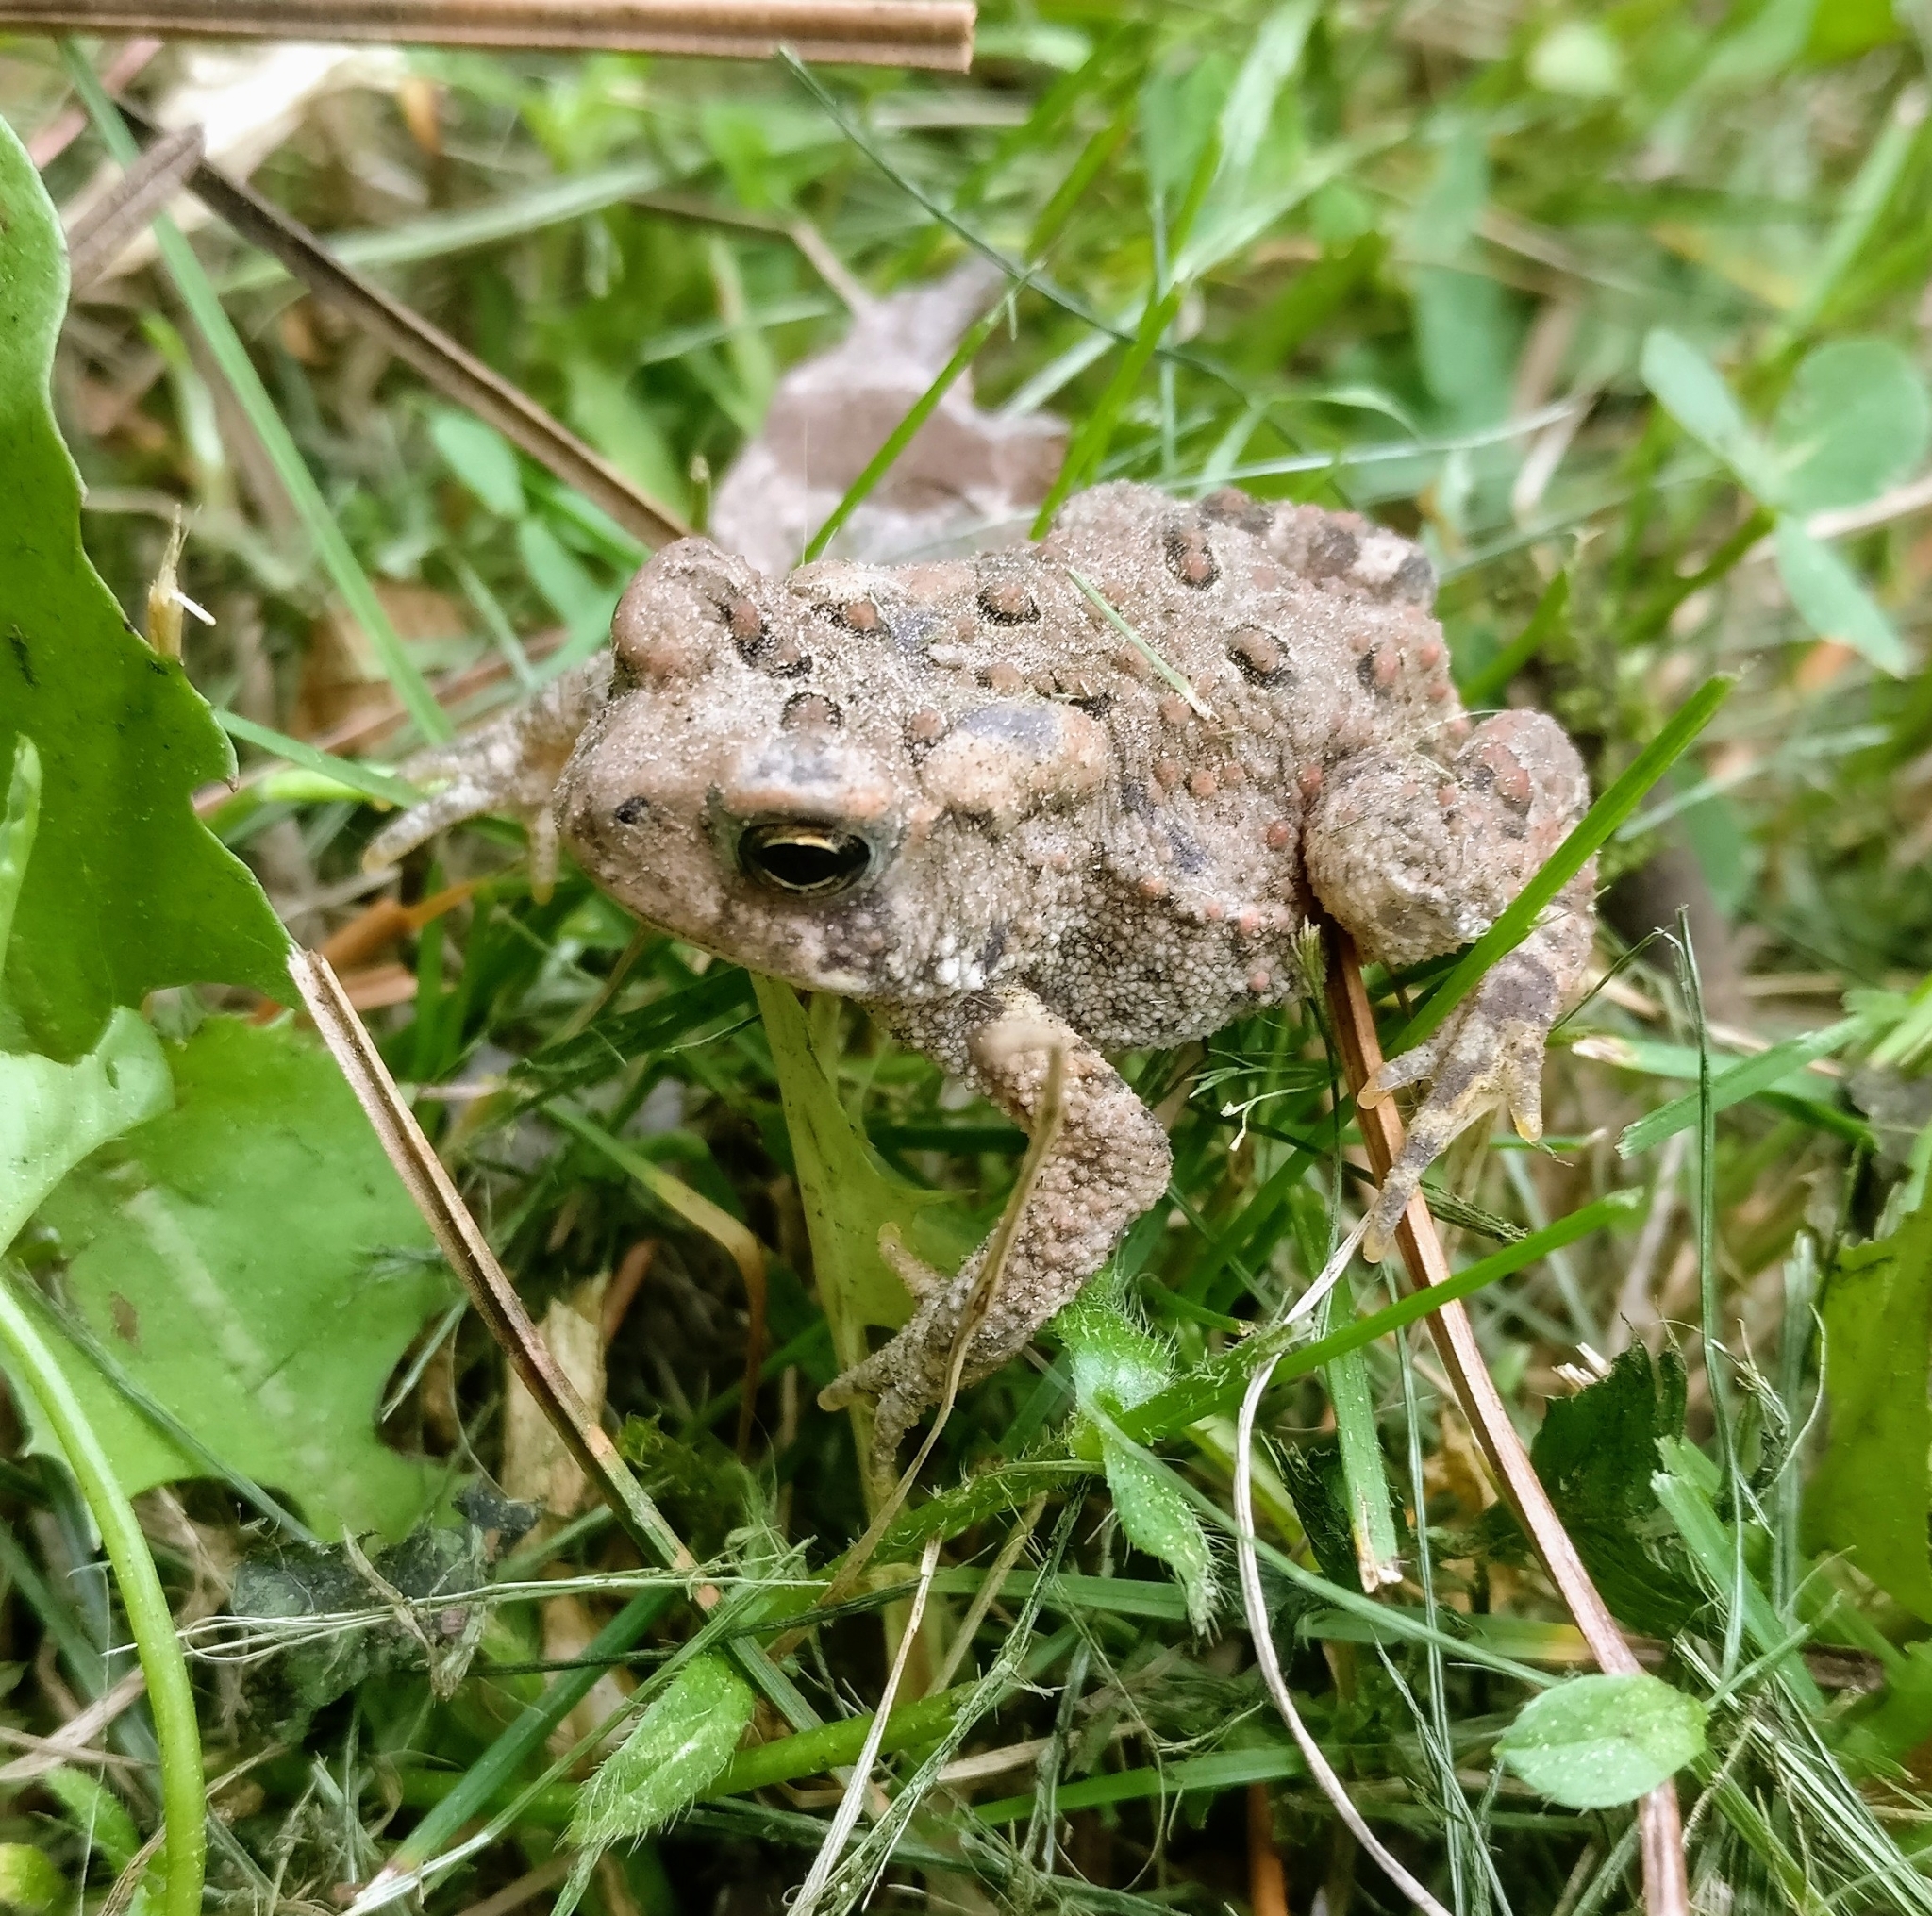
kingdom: Animalia
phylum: Chordata
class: Amphibia
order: Anura
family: Bufonidae
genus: Anaxyrus
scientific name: Anaxyrus americanus
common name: American toad
